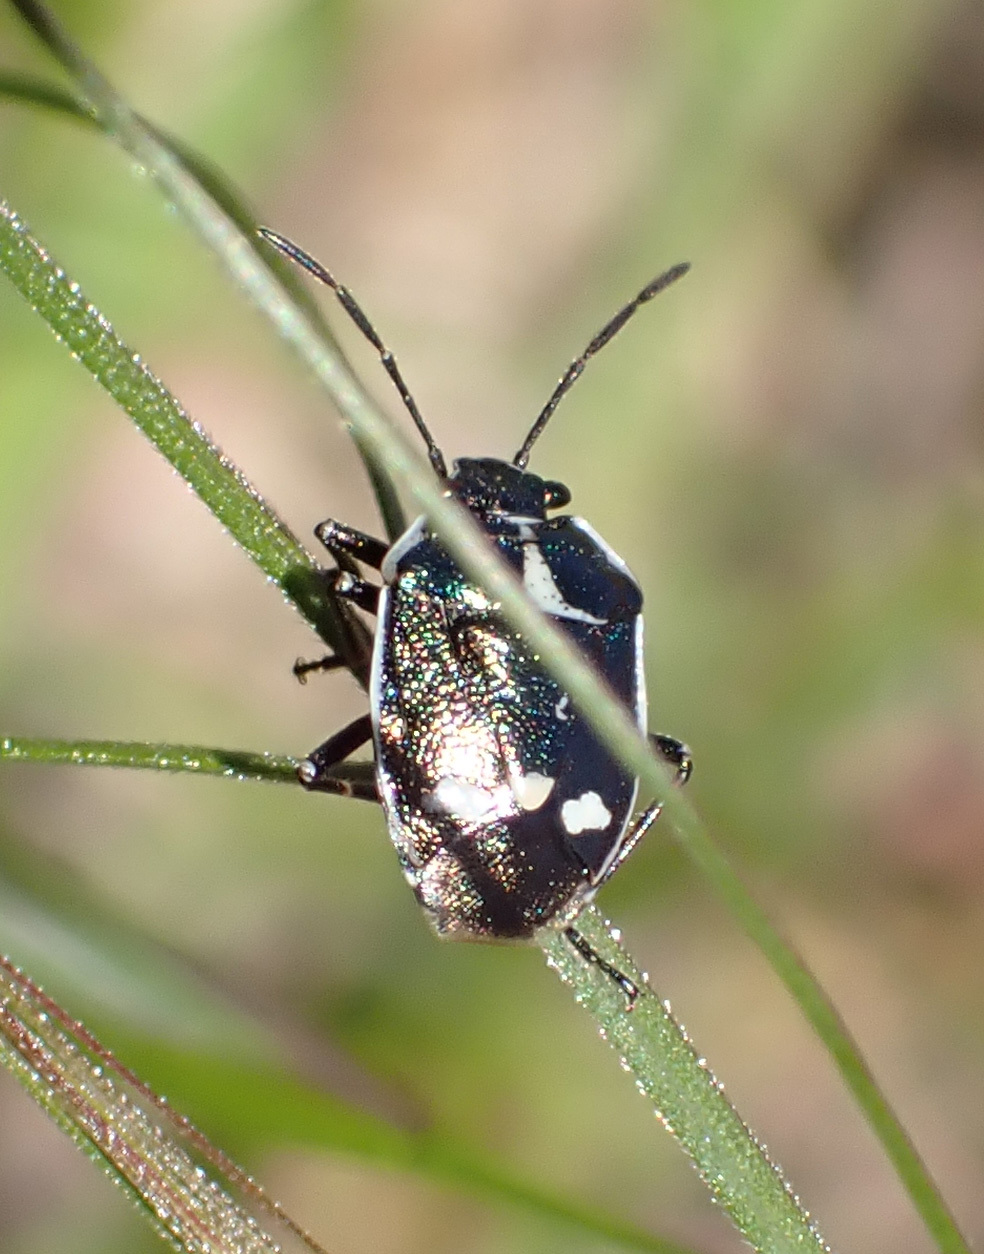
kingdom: Animalia
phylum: Arthropoda
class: Insecta
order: Hemiptera
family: Pentatomidae
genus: Eurydema
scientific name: Eurydema oleracea
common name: Cabbage bug
